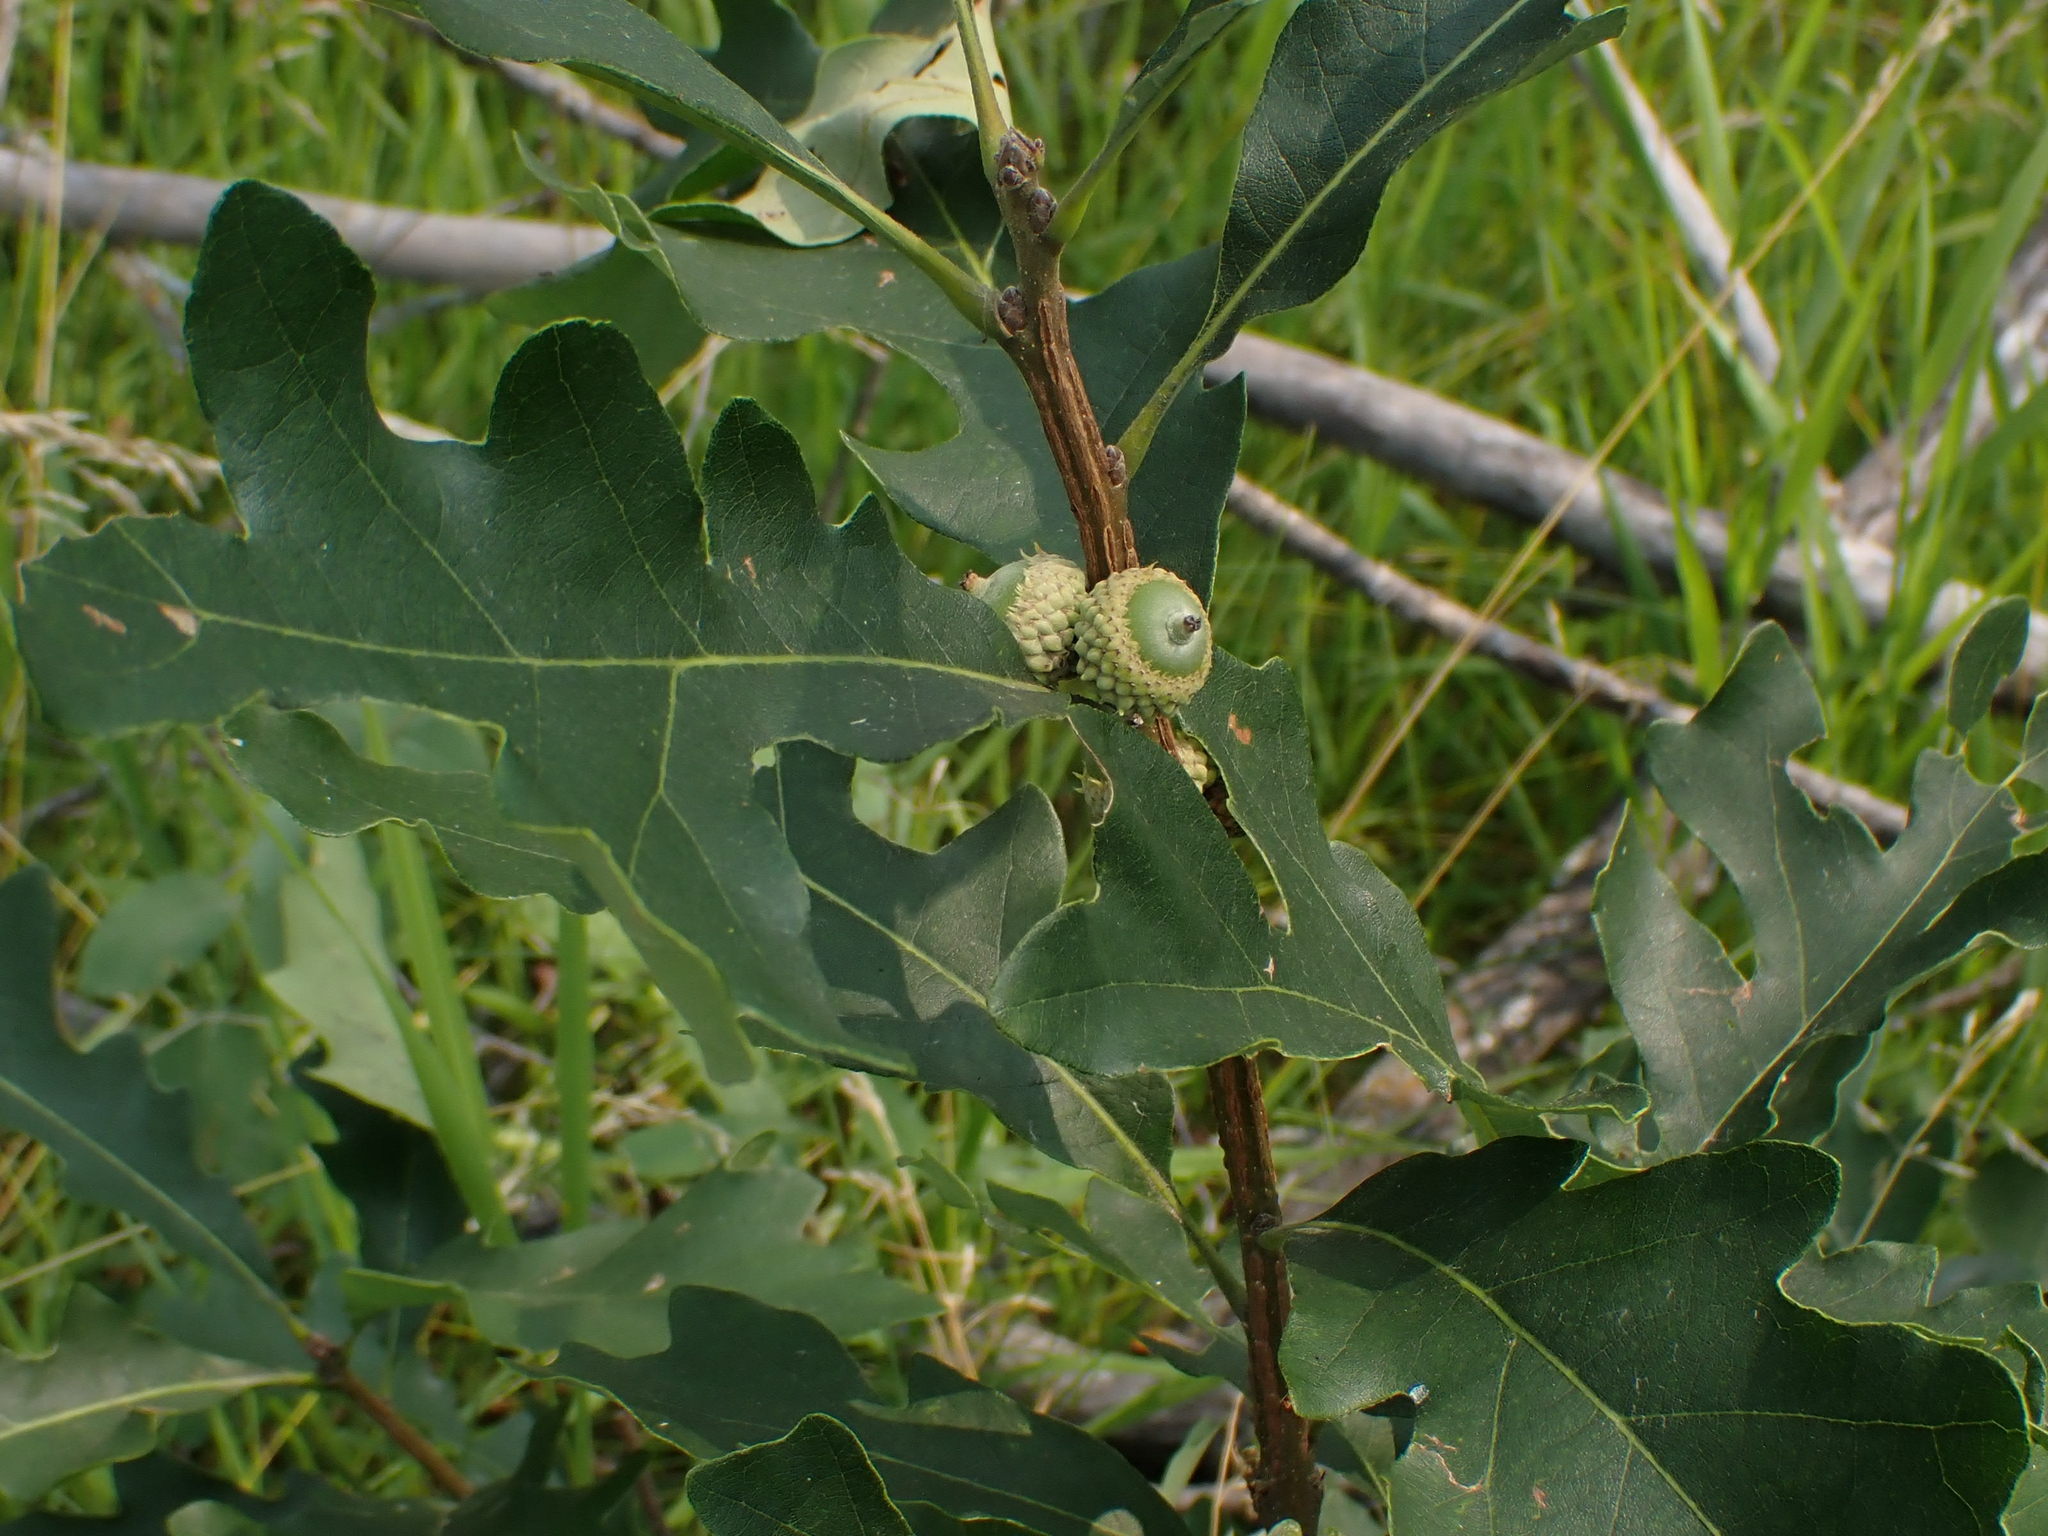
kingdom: Plantae
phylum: Tracheophyta
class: Magnoliopsida
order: Fagales
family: Fagaceae
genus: Quercus
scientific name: Quercus macrocarpa
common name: Bur oak
